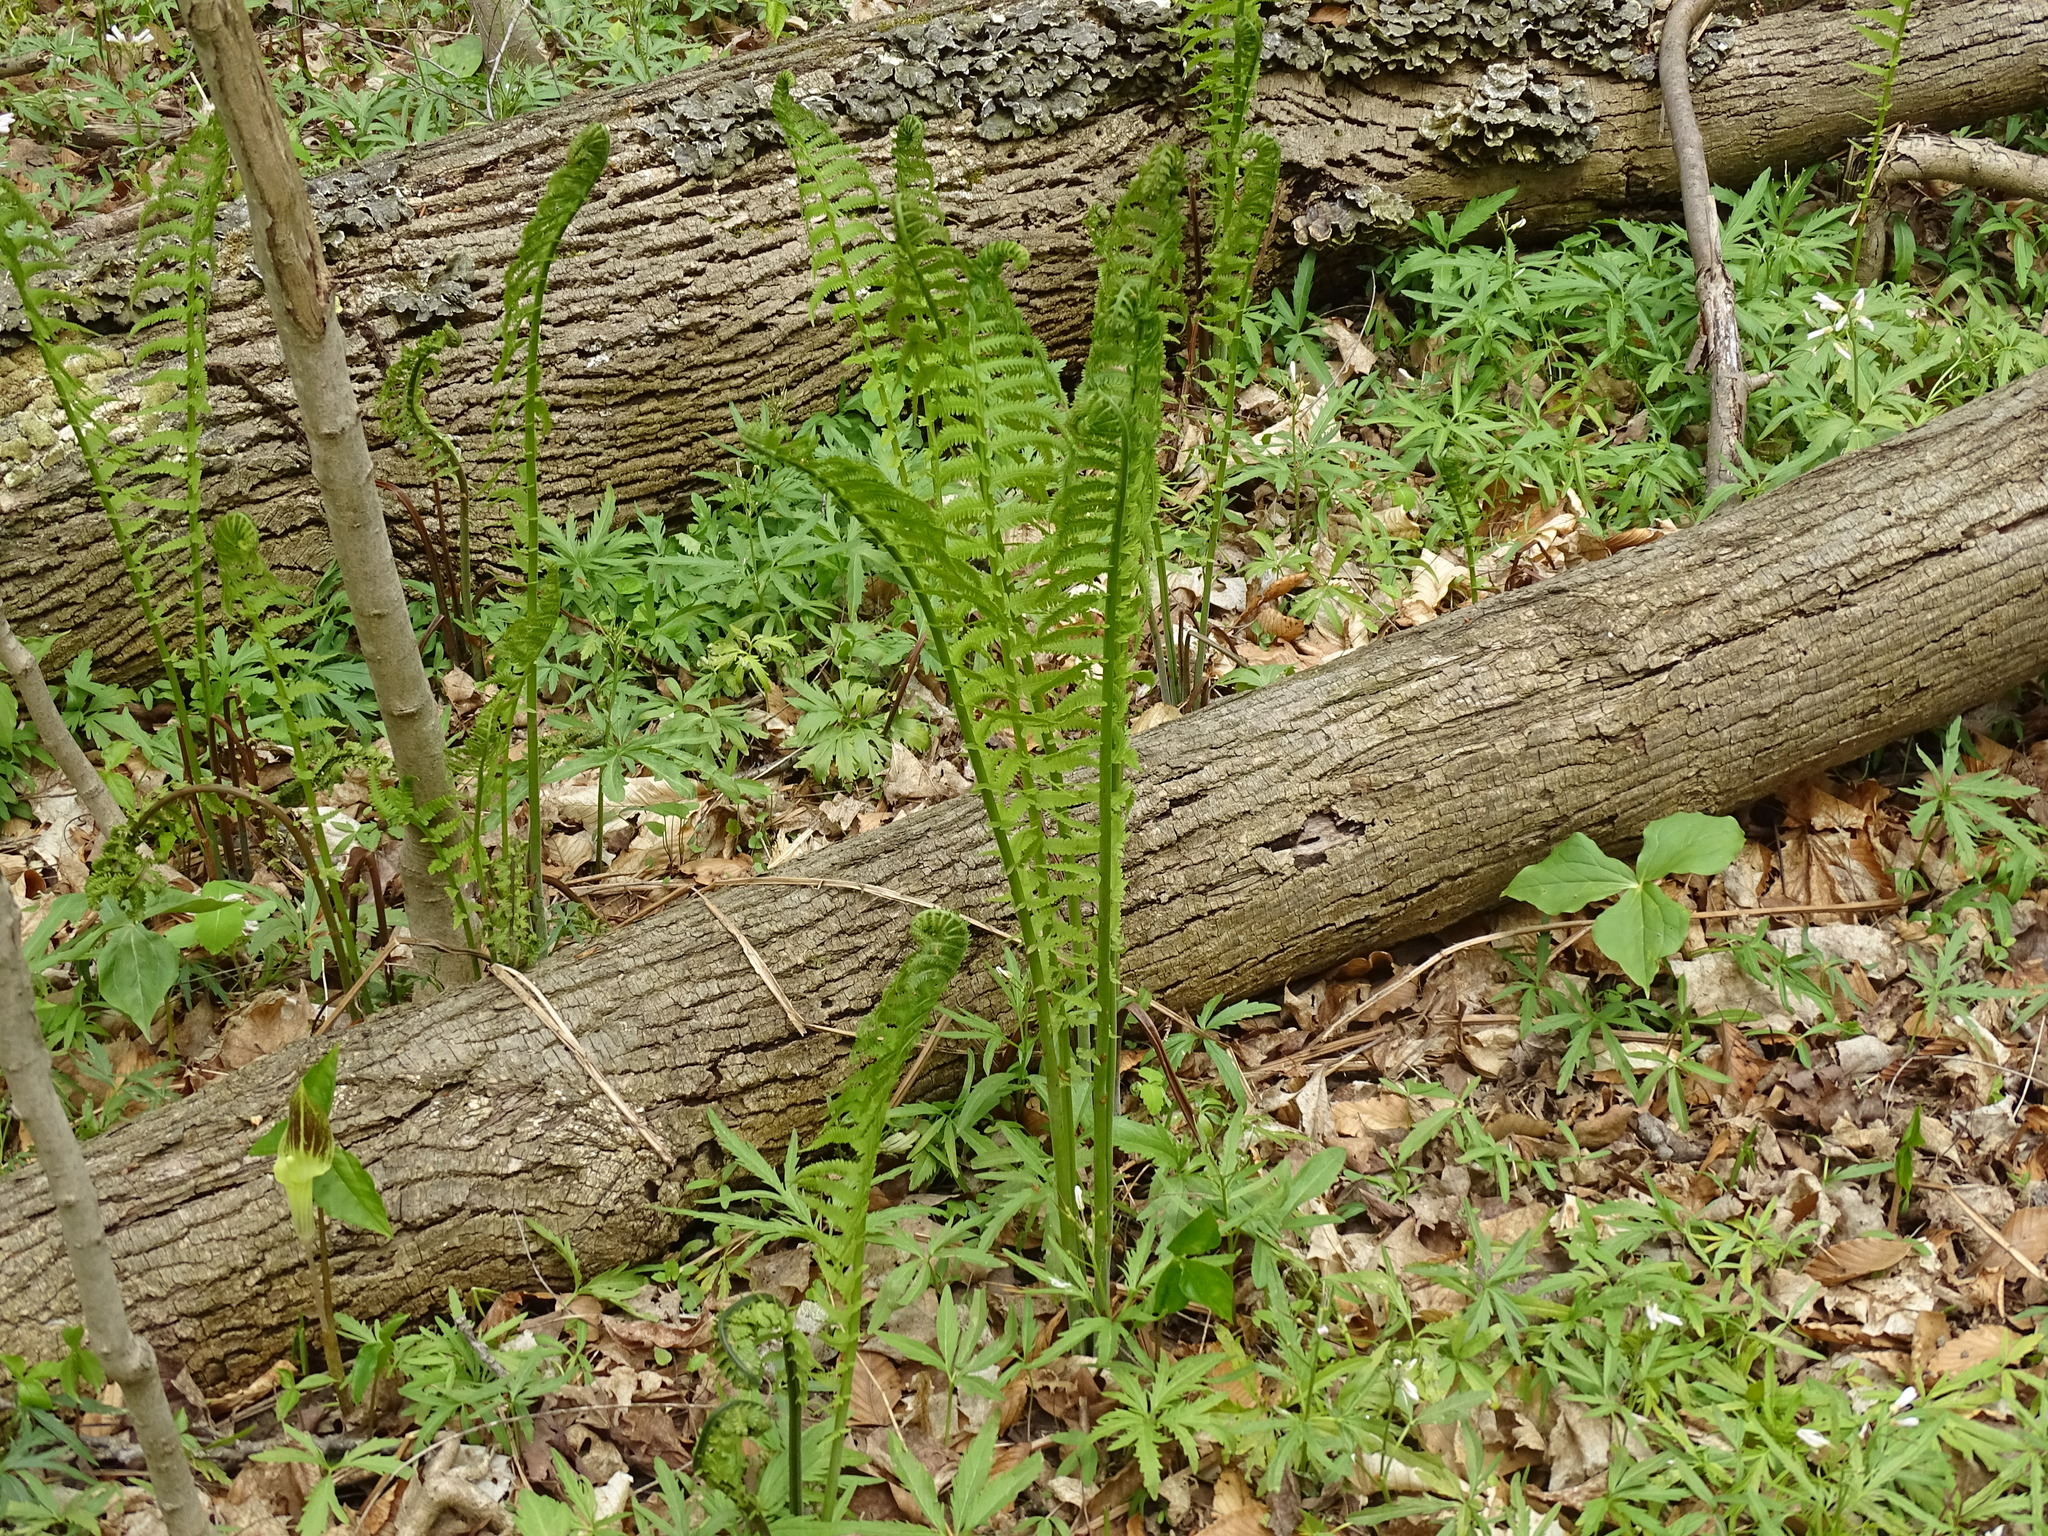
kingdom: Plantae
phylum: Tracheophyta
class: Polypodiopsida
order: Polypodiales
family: Onocleaceae
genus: Matteuccia
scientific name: Matteuccia struthiopteris
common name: Ostrich fern
